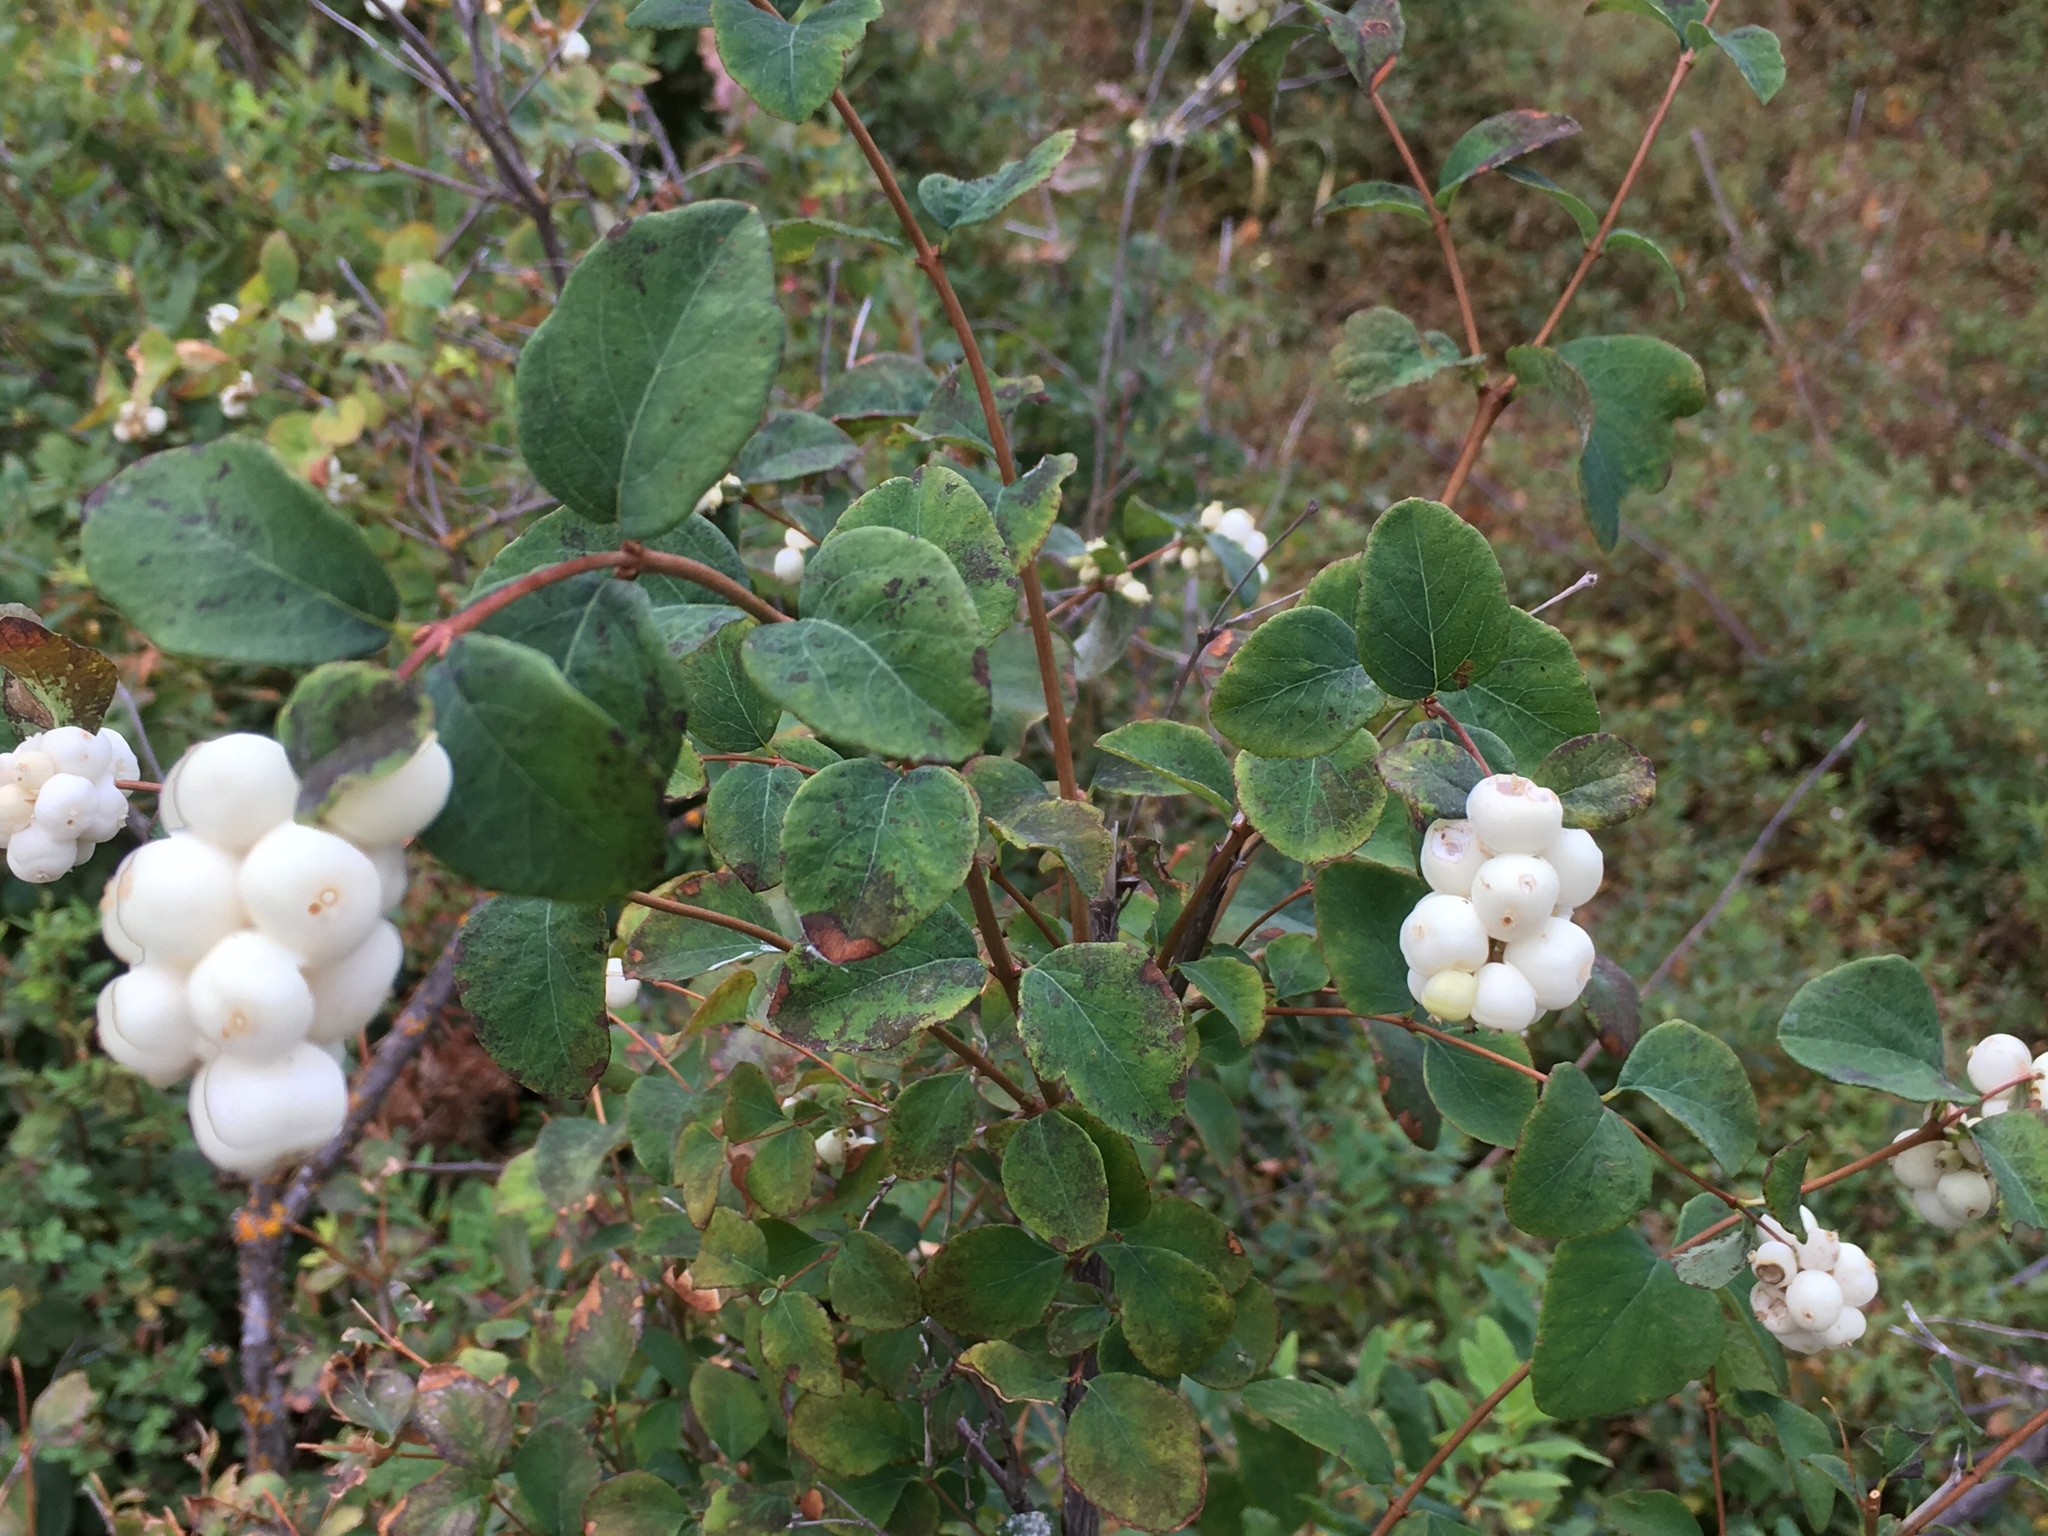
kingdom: Plantae
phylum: Tracheophyta
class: Magnoliopsida
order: Dipsacales
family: Caprifoliaceae
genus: Symphoricarpos
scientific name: Symphoricarpos albus
